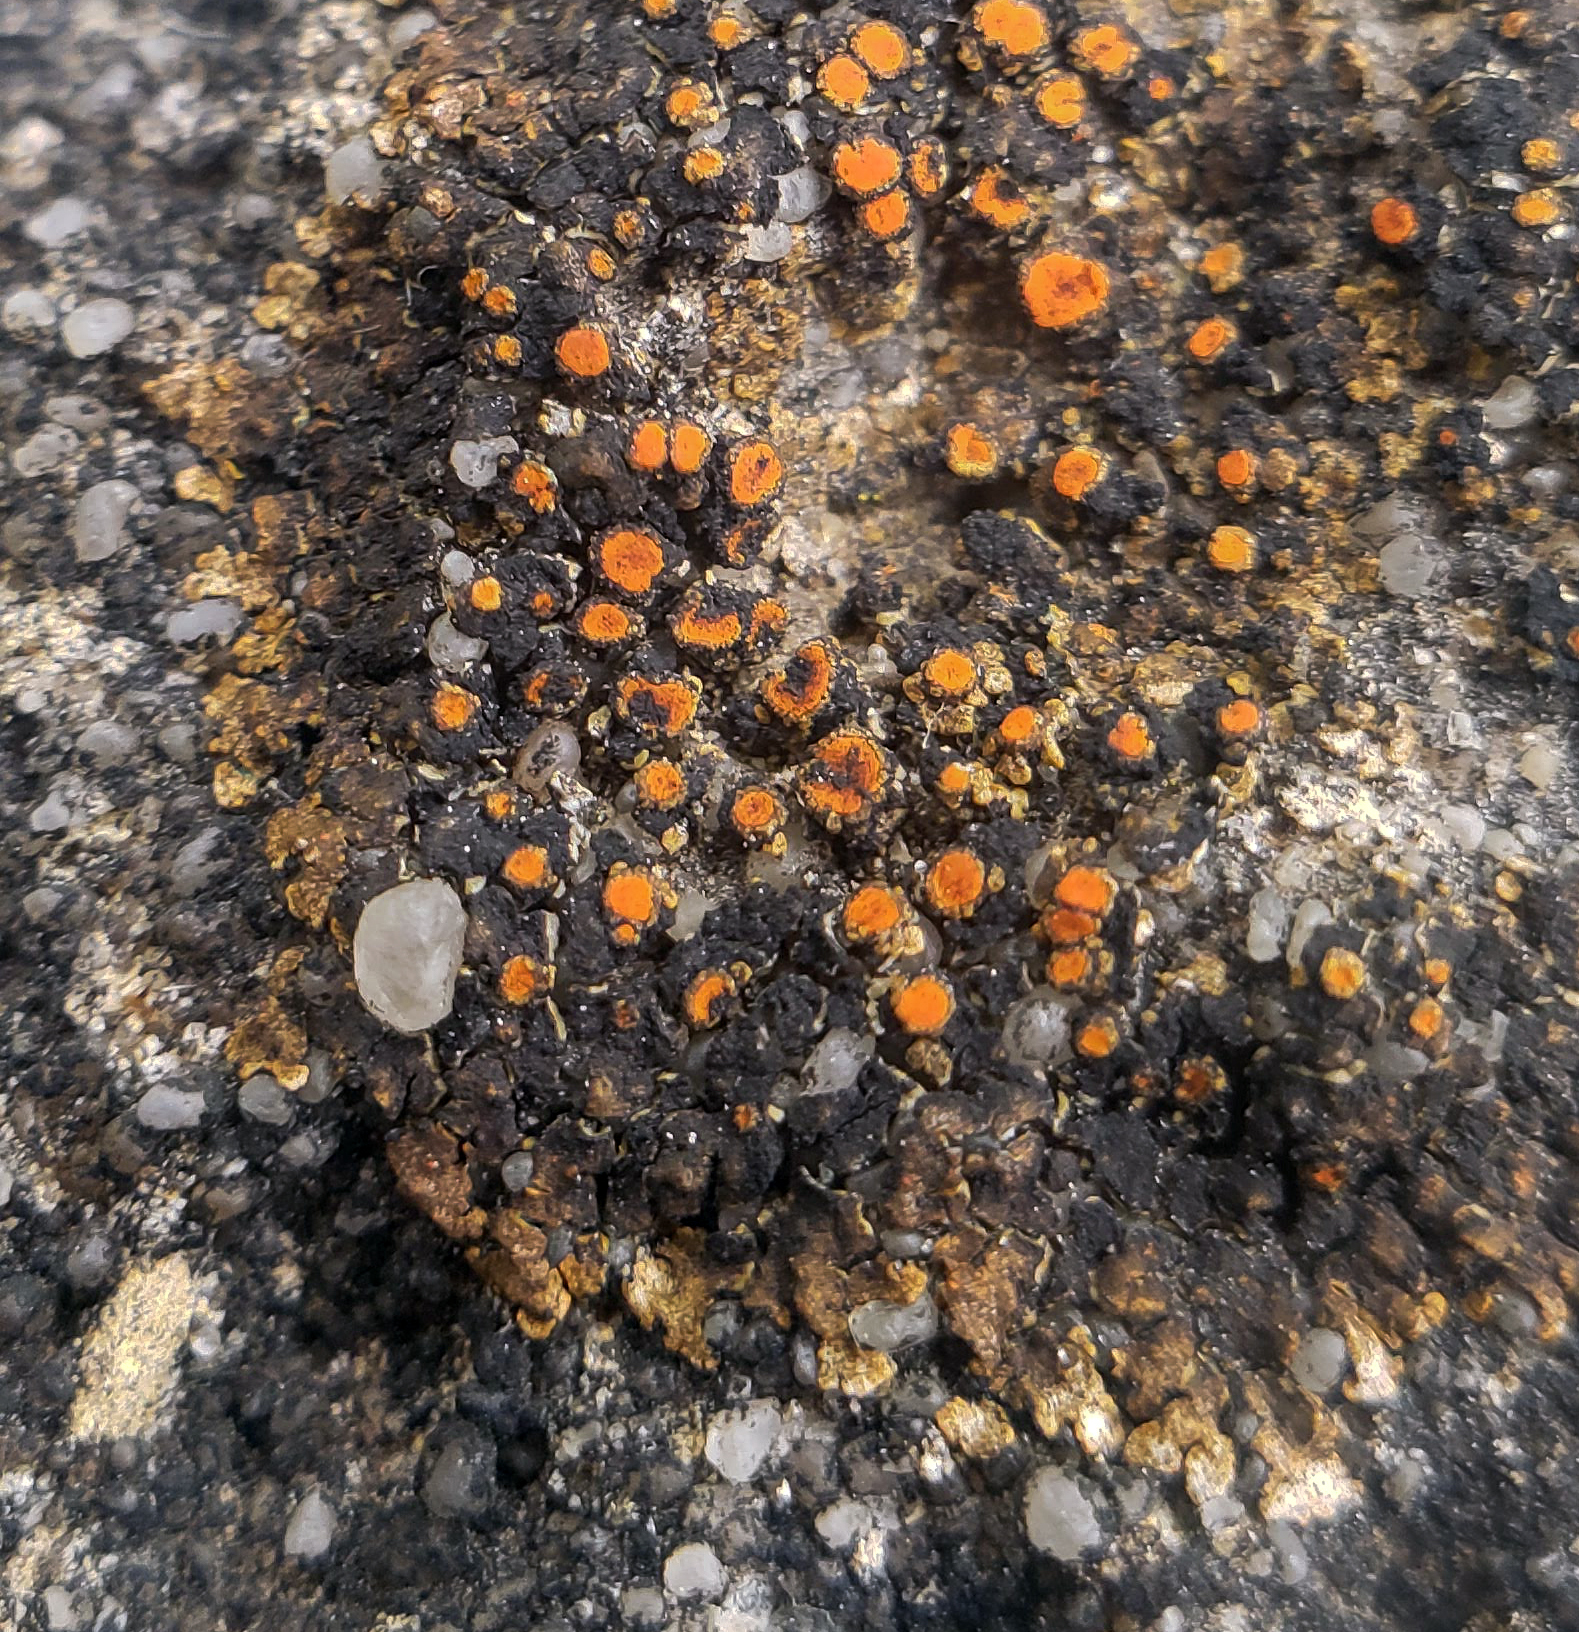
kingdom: Fungi
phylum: Ascomycota
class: Lecanoromycetes
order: Teloschistales
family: Teloschistaceae
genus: Squamulea
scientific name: Squamulea galactophylla
